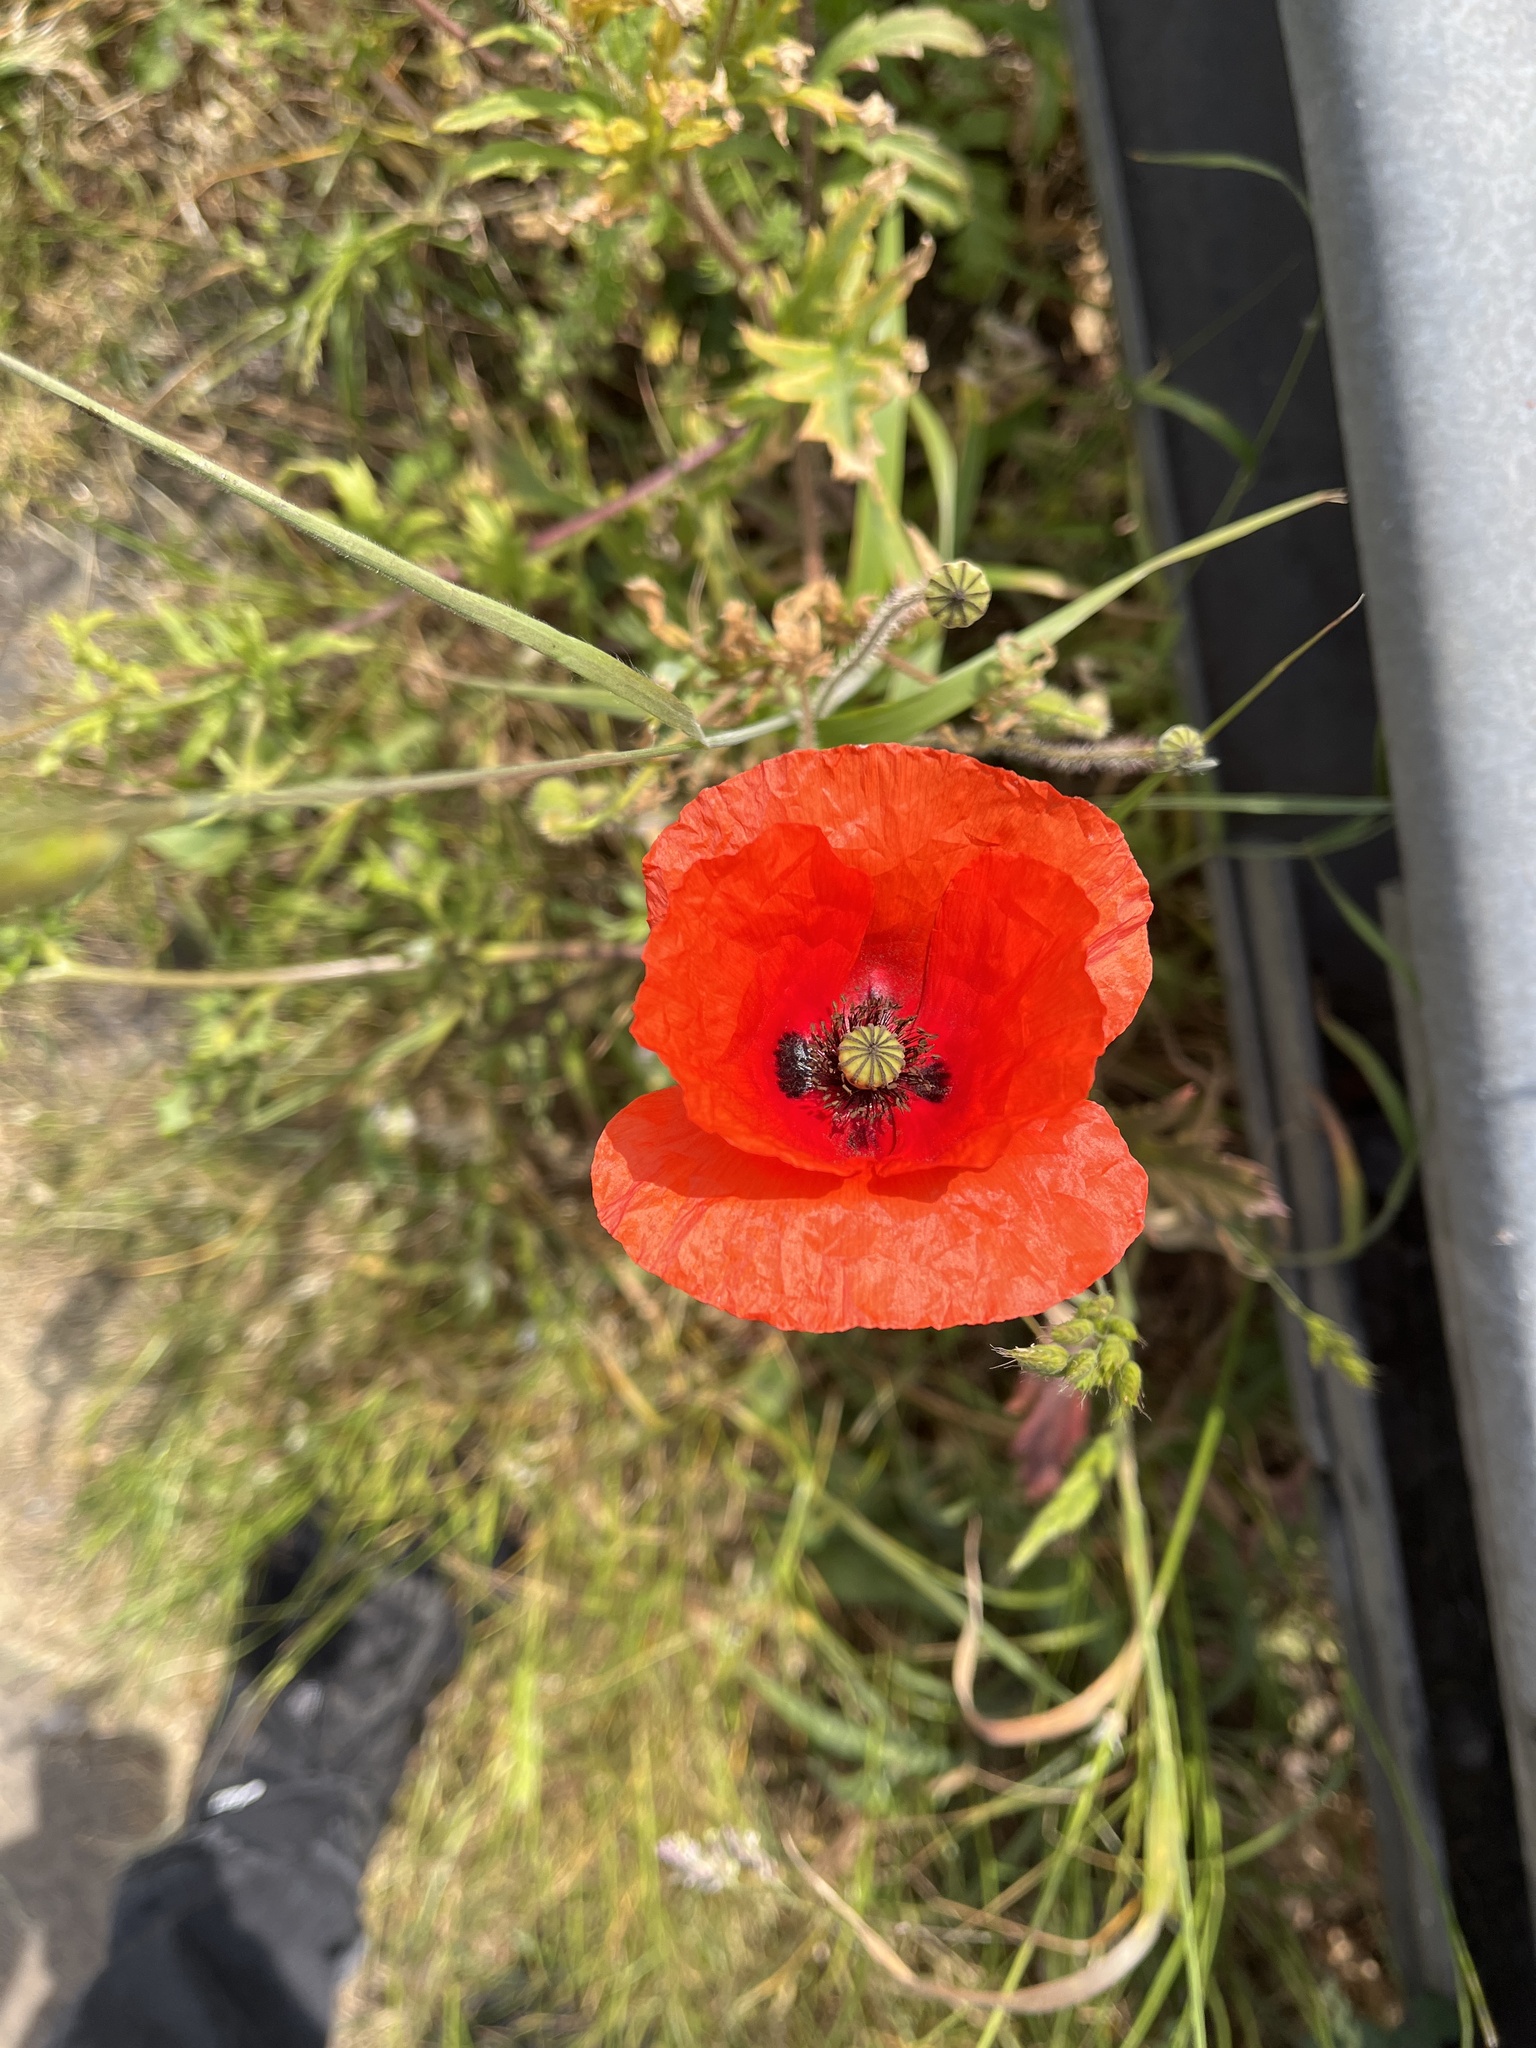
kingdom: Plantae
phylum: Tracheophyta
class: Magnoliopsida
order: Ranunculales
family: Papaveraceae
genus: Papaver
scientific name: Papaver rhoeas
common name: Corn poppy
